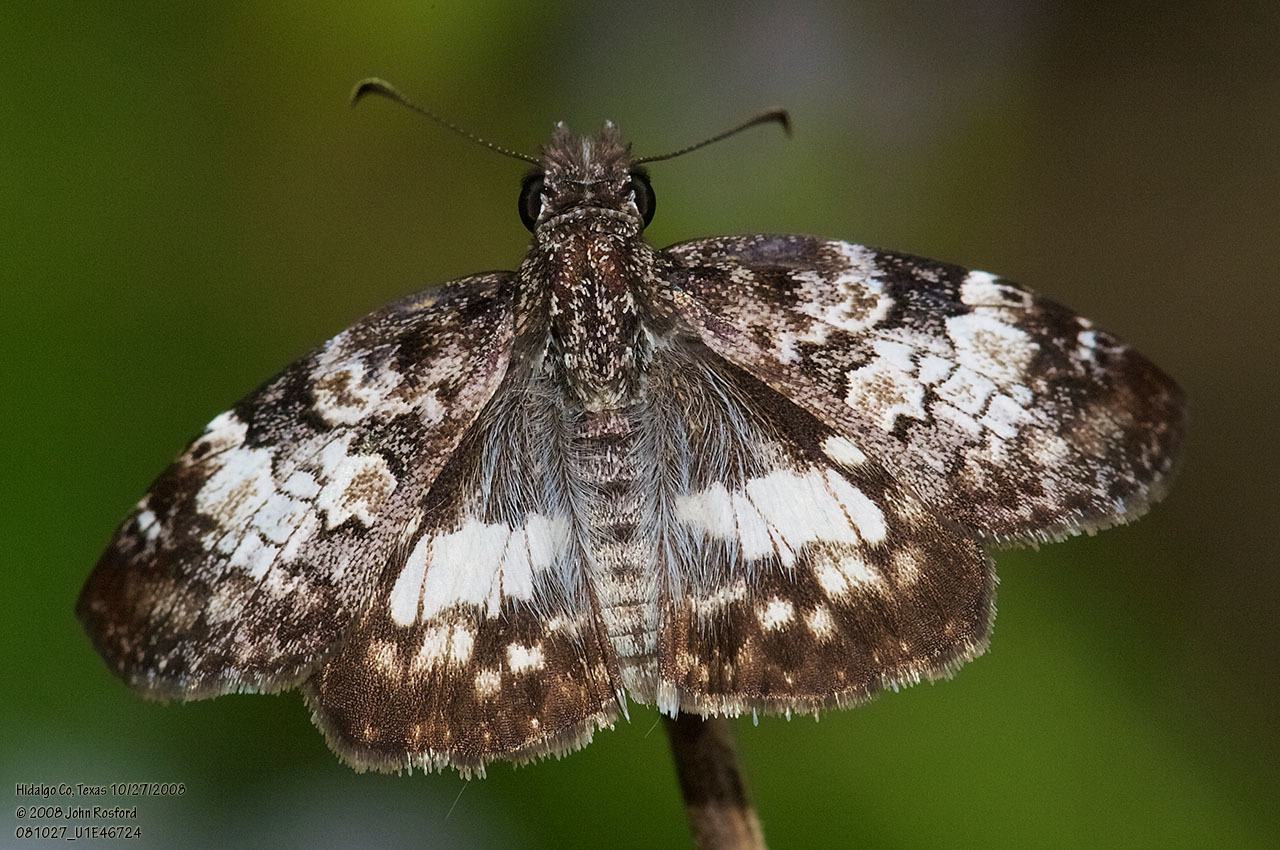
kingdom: Animalia
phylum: Arthropoda
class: Insecta
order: Lepidoptera
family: Hesperiidae
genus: Chiothion
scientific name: Chiothion georgina
